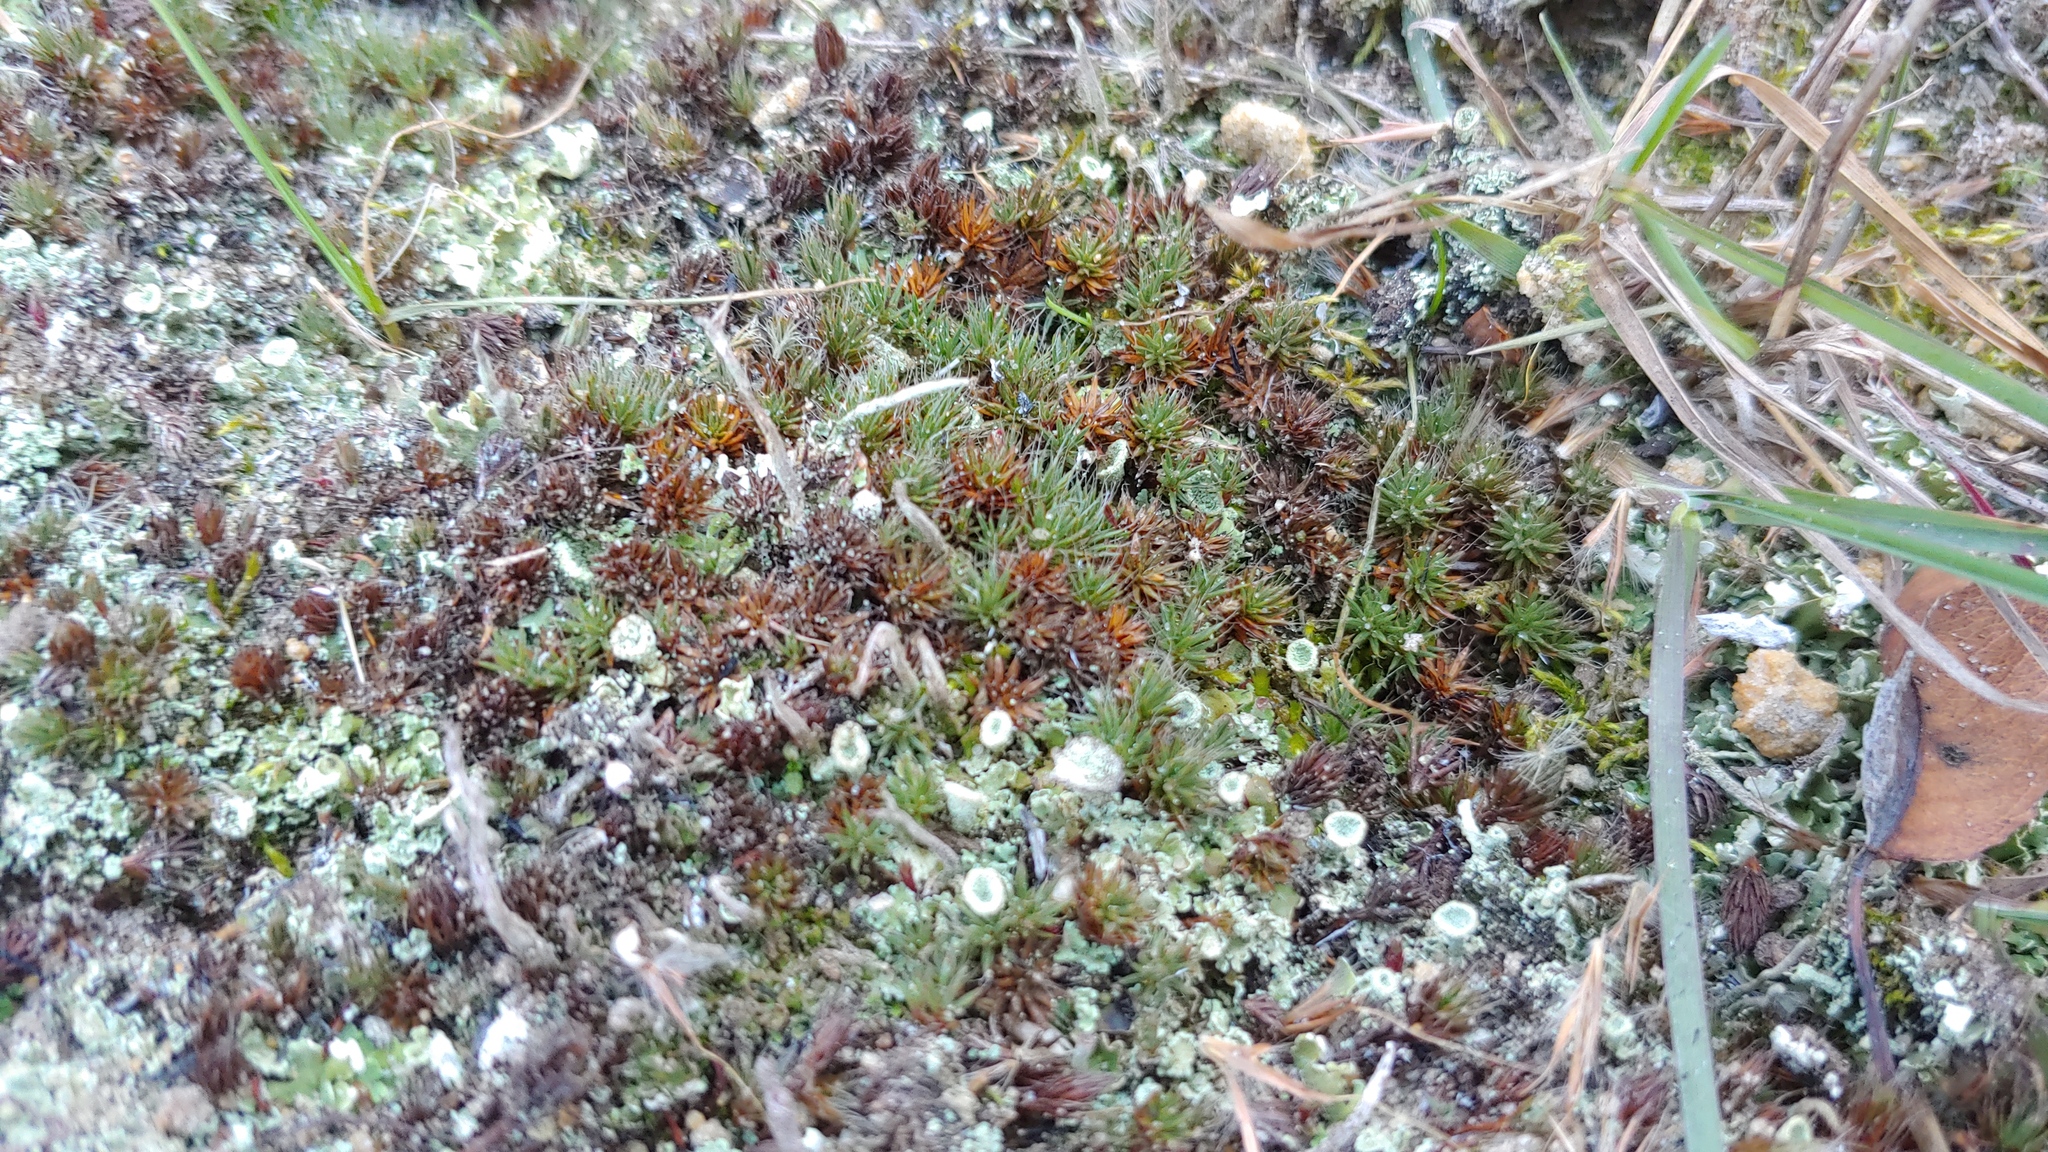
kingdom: Plantae
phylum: Bryophyta
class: Polytrichopsida
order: Polytrichales
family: Polytrichaceae
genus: Polytrichum
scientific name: Polytrichum piliferum
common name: Bristly haircap
